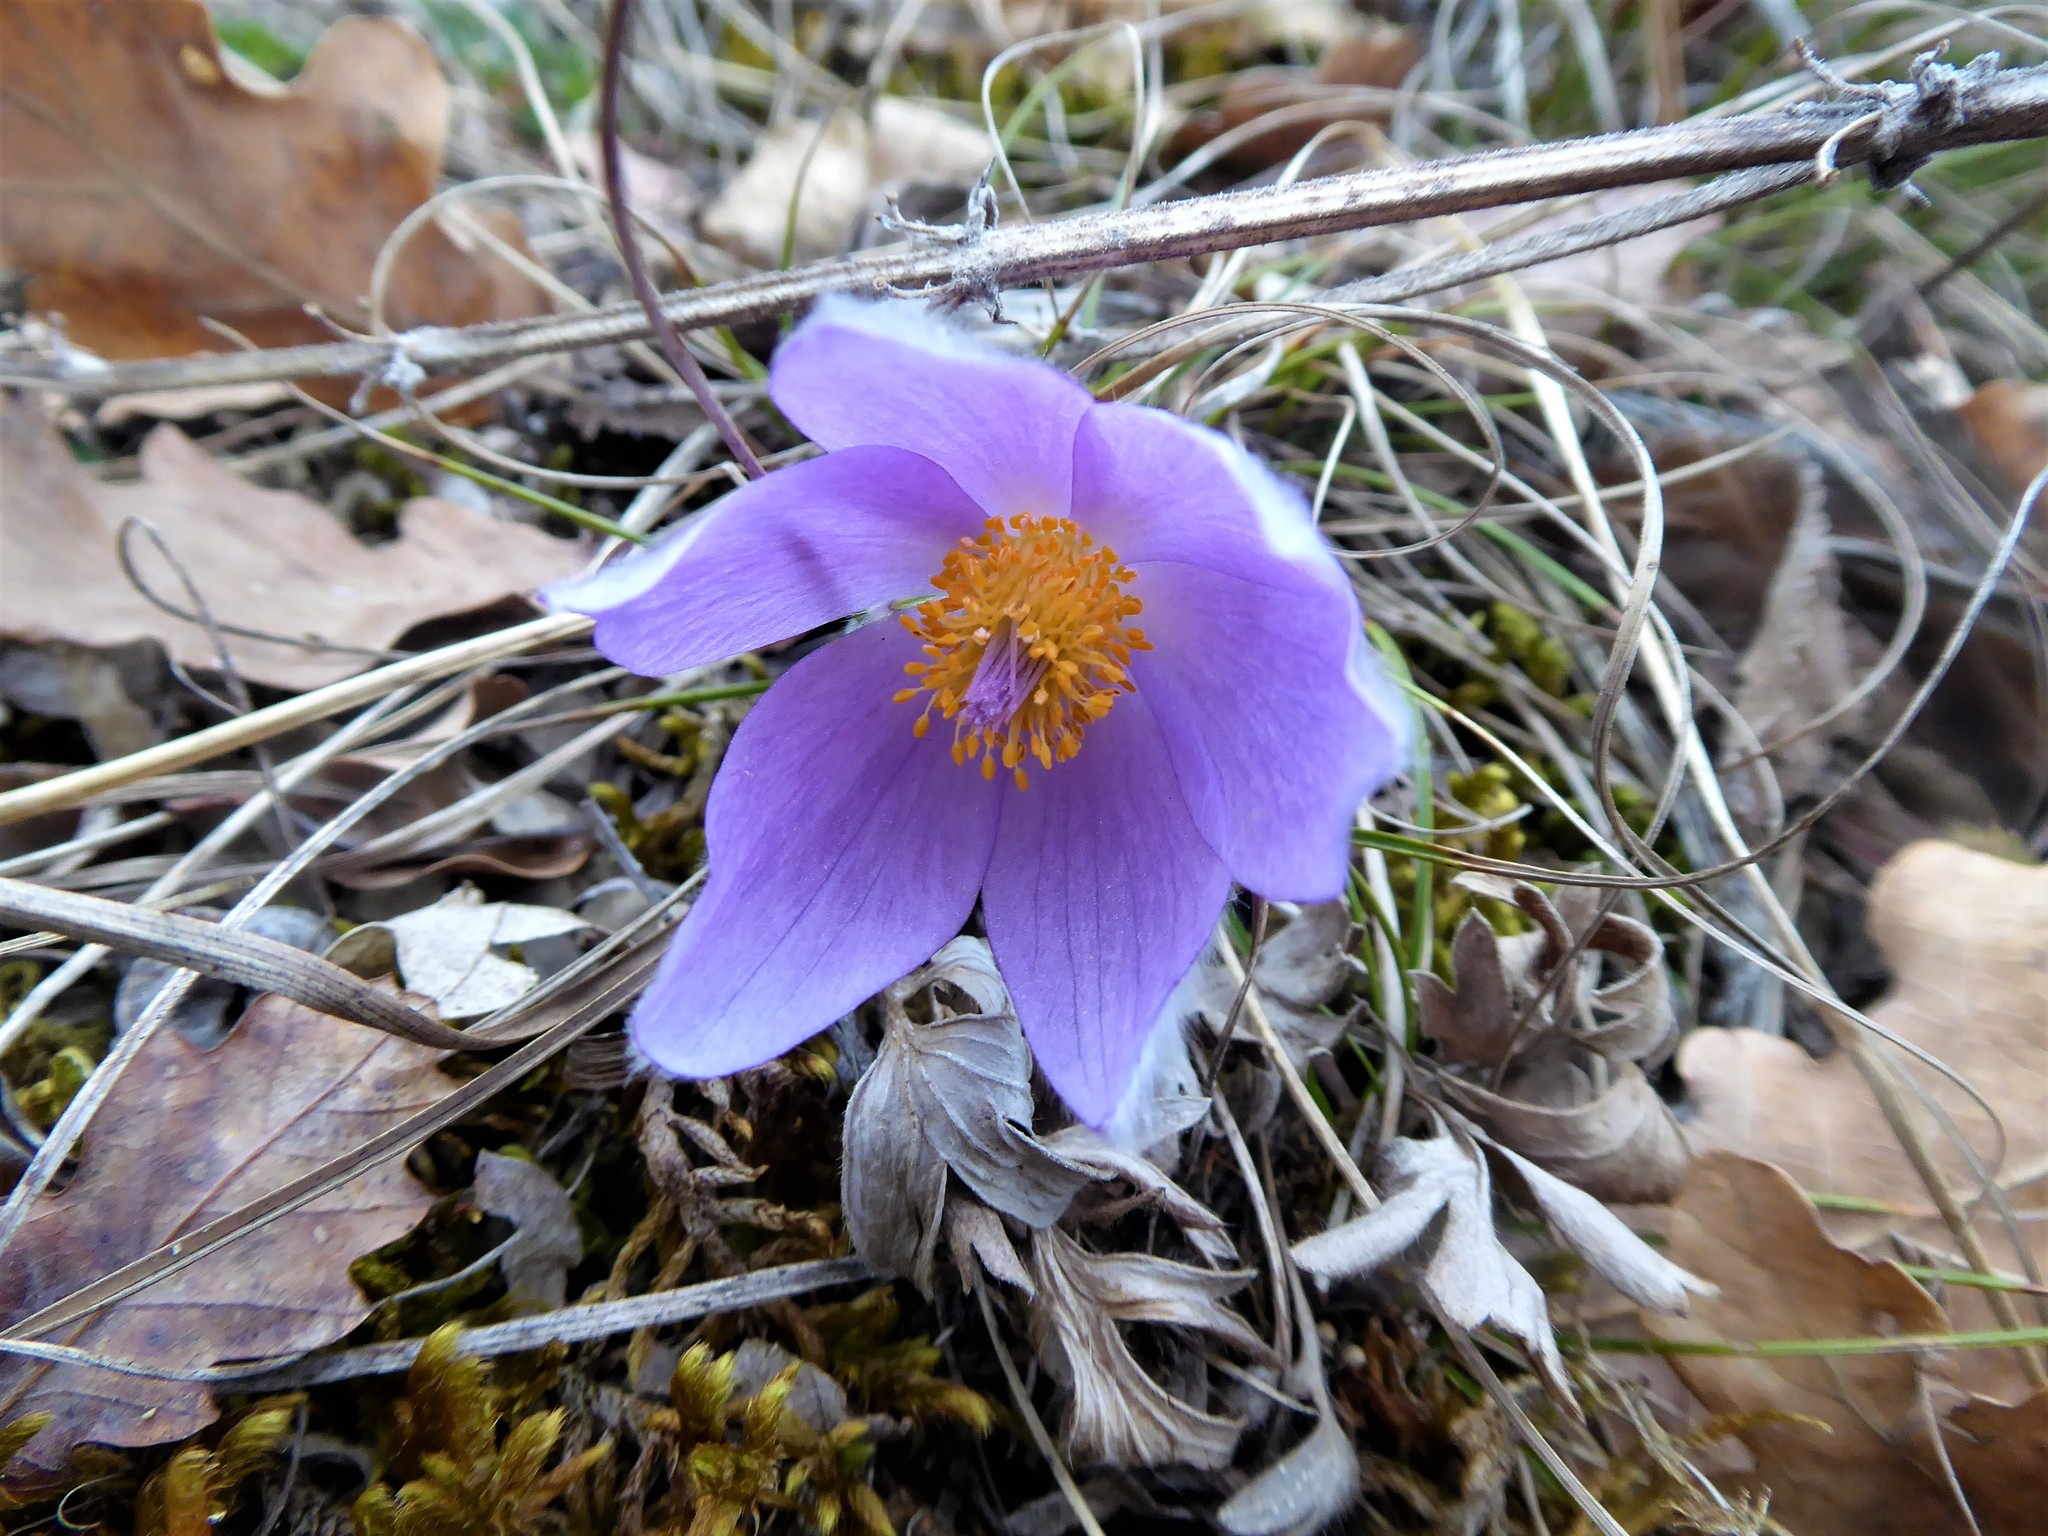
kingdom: Plantae
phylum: Tracheophyta
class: Magnoliopsida
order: Ranunculales
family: Ranunculaceae
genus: Pulsatilla
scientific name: Pulsatilla grandis
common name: Greater pasque flower
